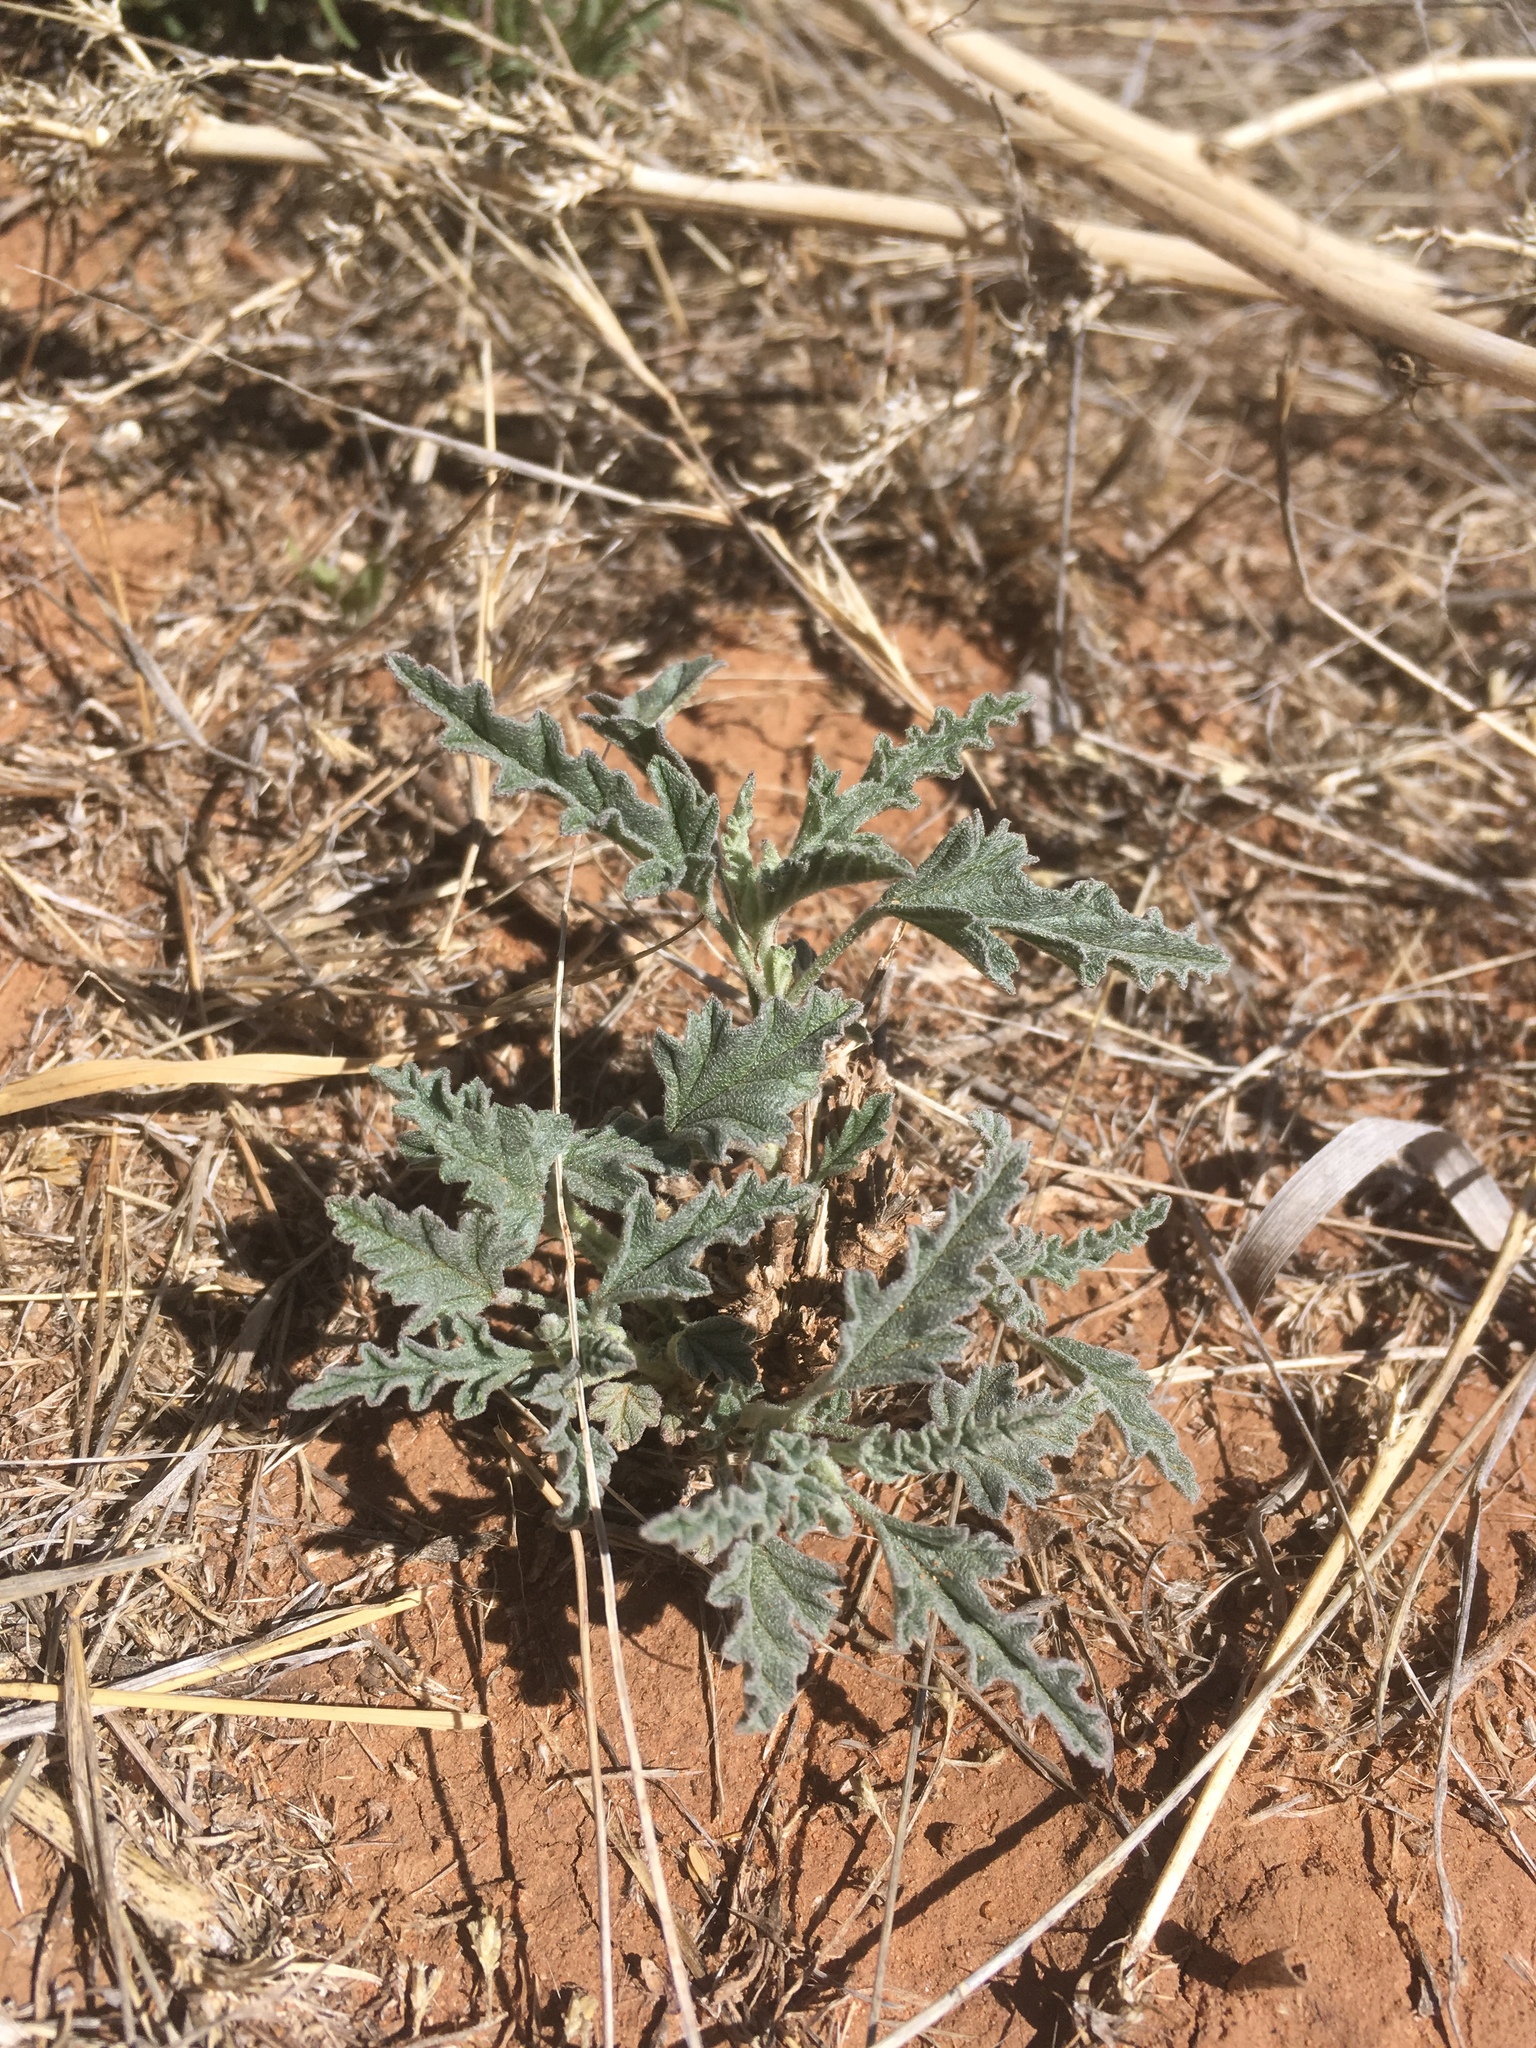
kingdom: Plantae
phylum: Tracheophyta
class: Magnoliopsida
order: Malvales
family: Malvaceae
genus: Sphaeralcea
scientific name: Sphaeralcea hastulata
